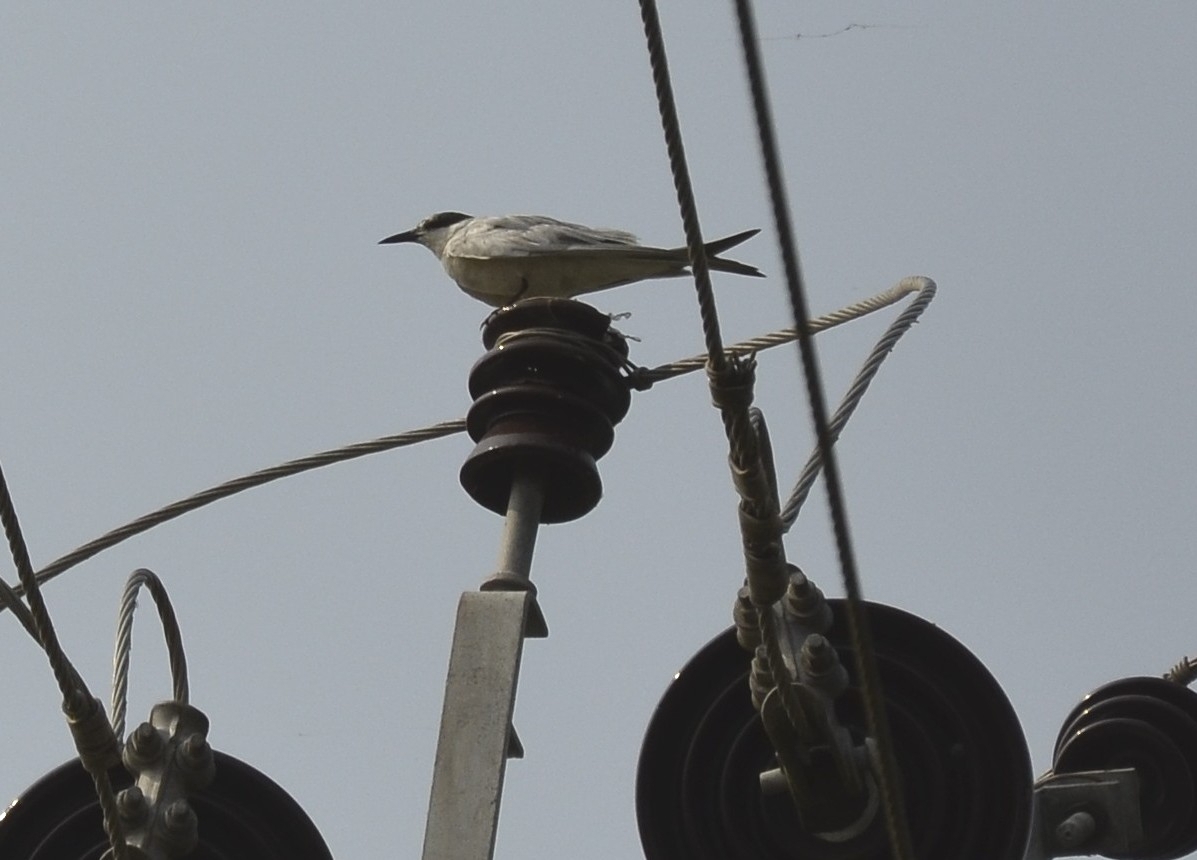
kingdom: Animalia
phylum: Chordata
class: Aves
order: Charadriiformes
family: Laridae
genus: Chlidonias
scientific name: Chlidonias hybrida
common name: Whiskered tern
